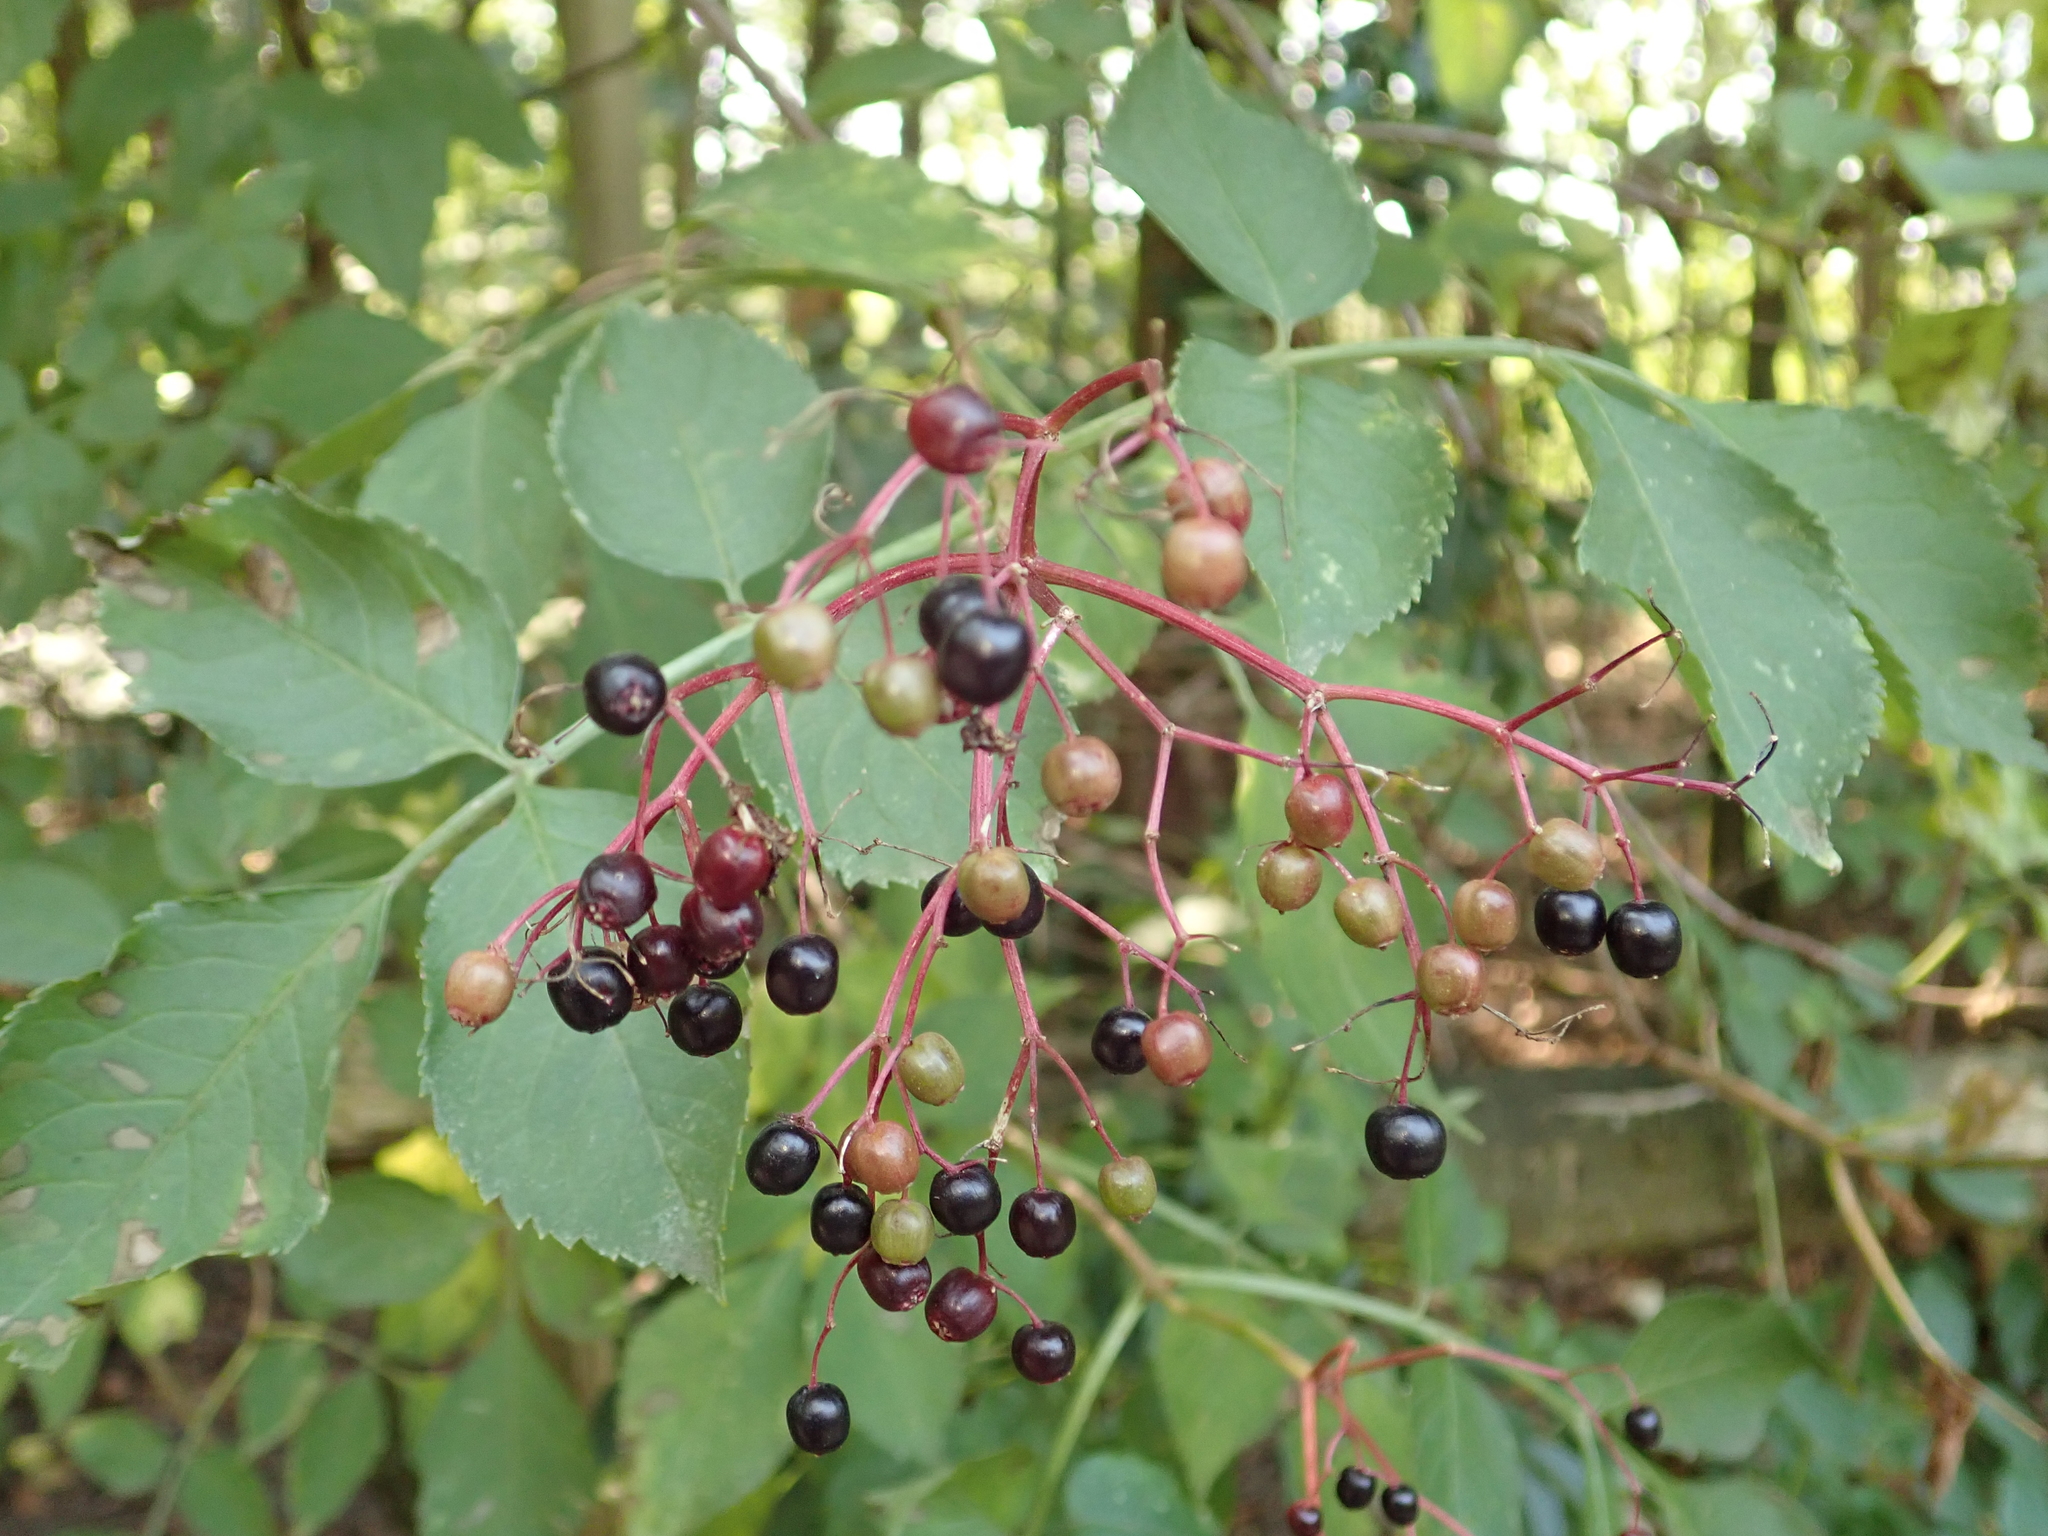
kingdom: Plantae
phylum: Tracheophyta
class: Magnoliopsida
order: Dipsacales
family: Viburnaceae
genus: Sambucus
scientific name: Sambucus nigra
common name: Elder
